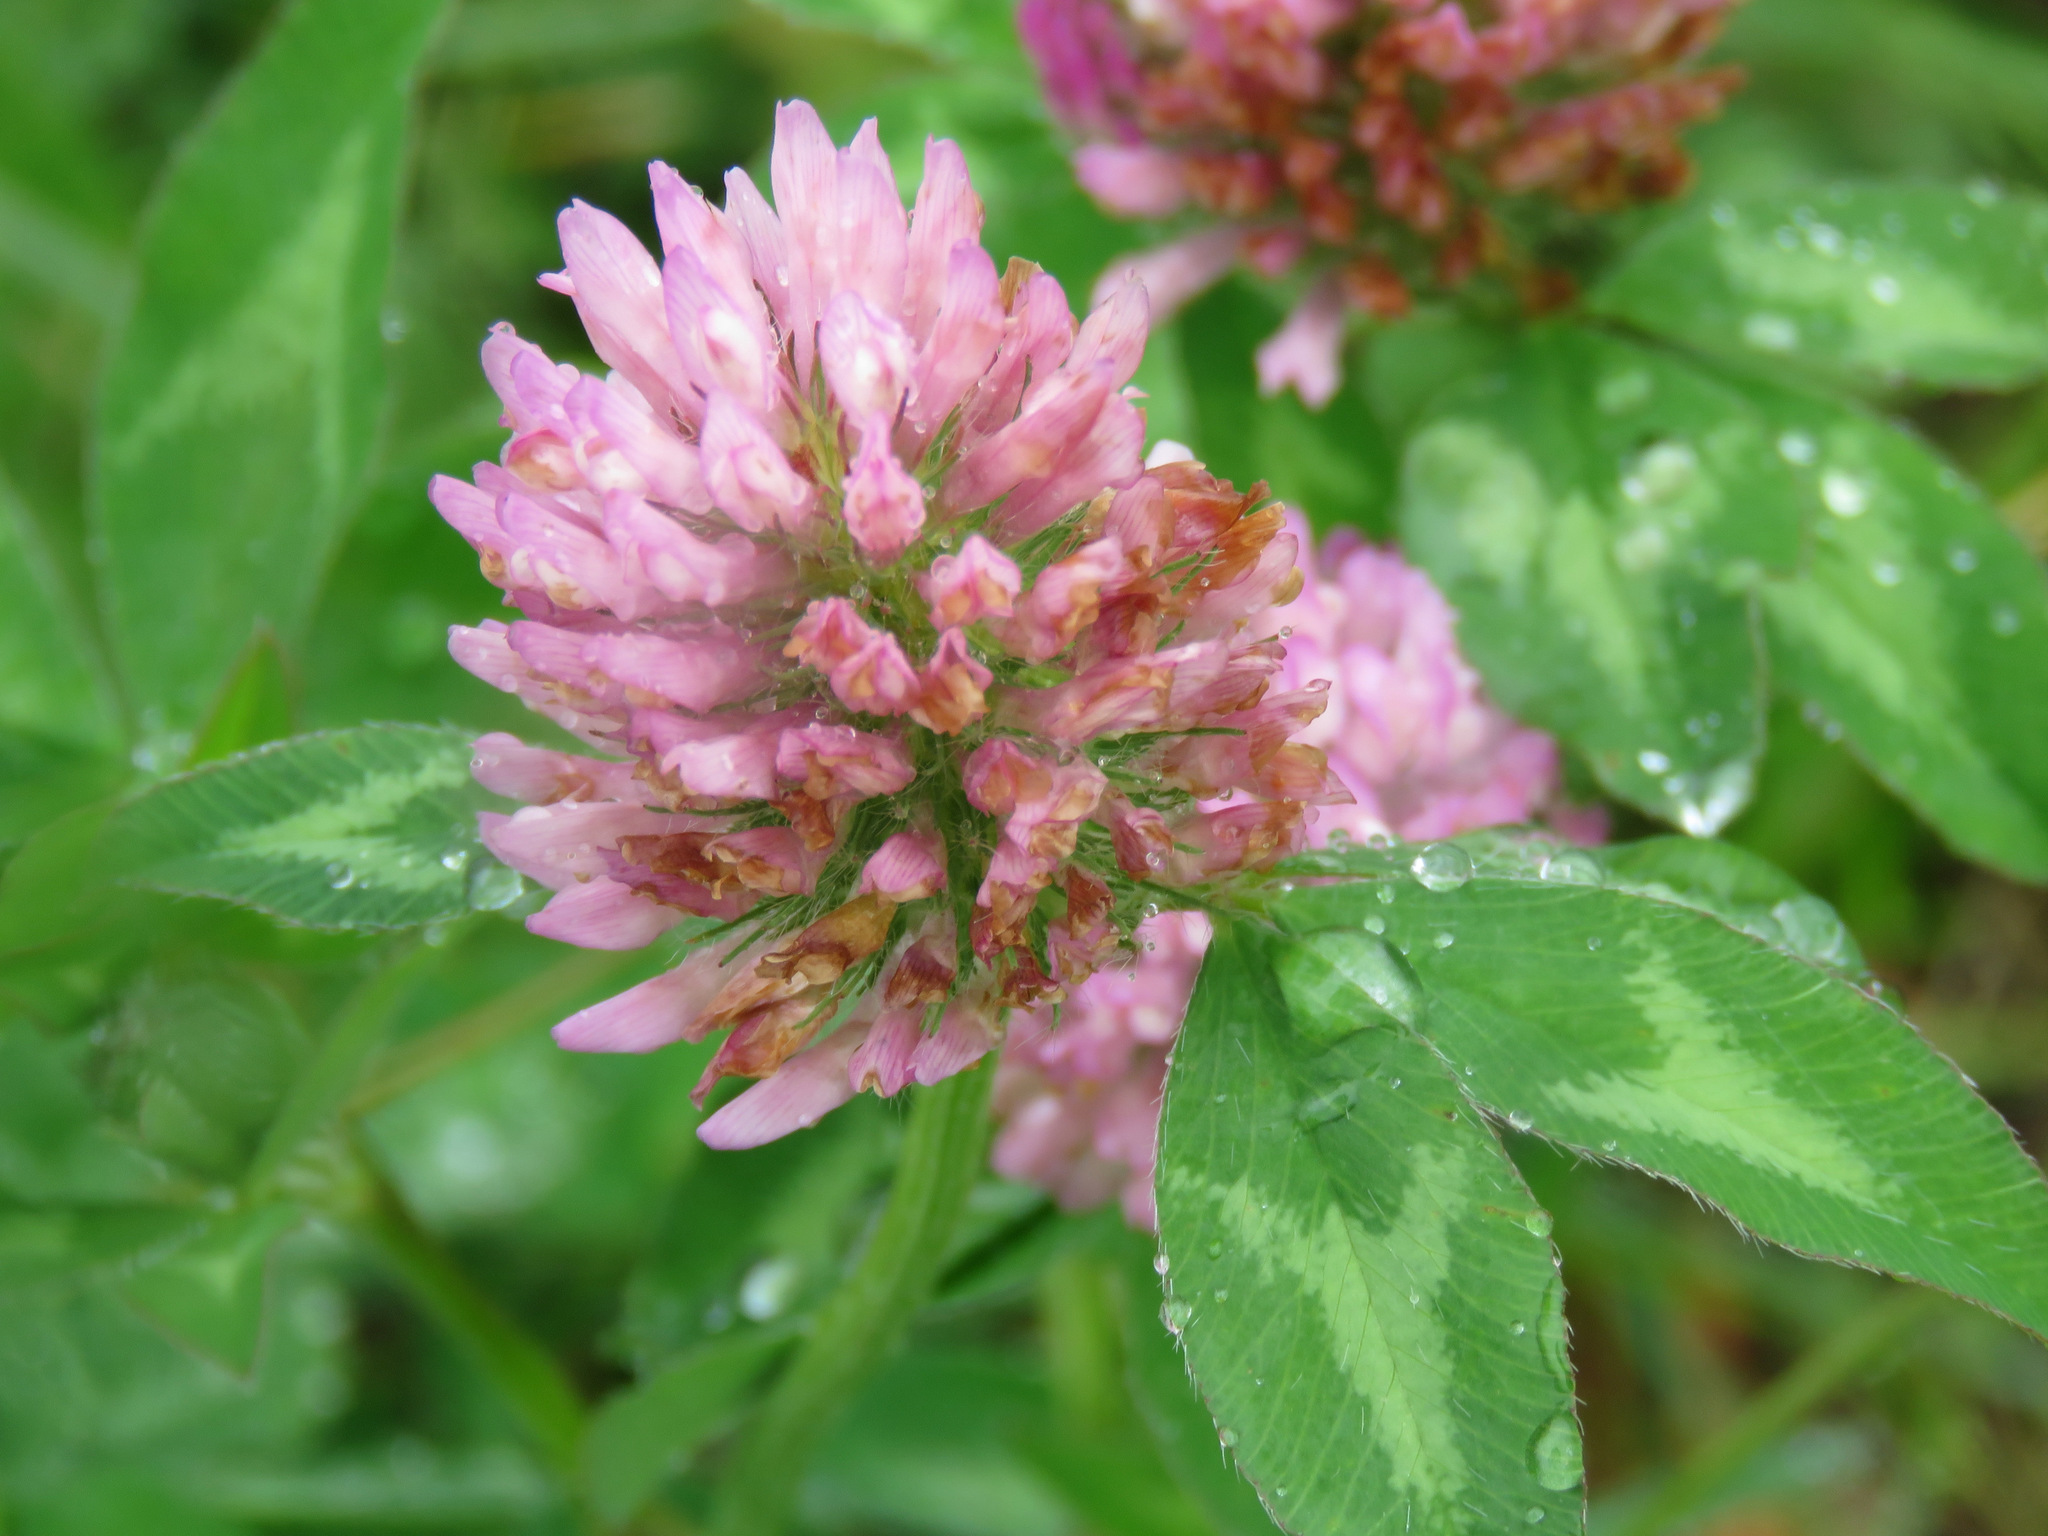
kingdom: Plantae
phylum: Tracheophyta
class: Magnoliopsida
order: Fabales
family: Fabaceae
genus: Trifolium
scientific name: Trifolium pratense
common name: Red clover
